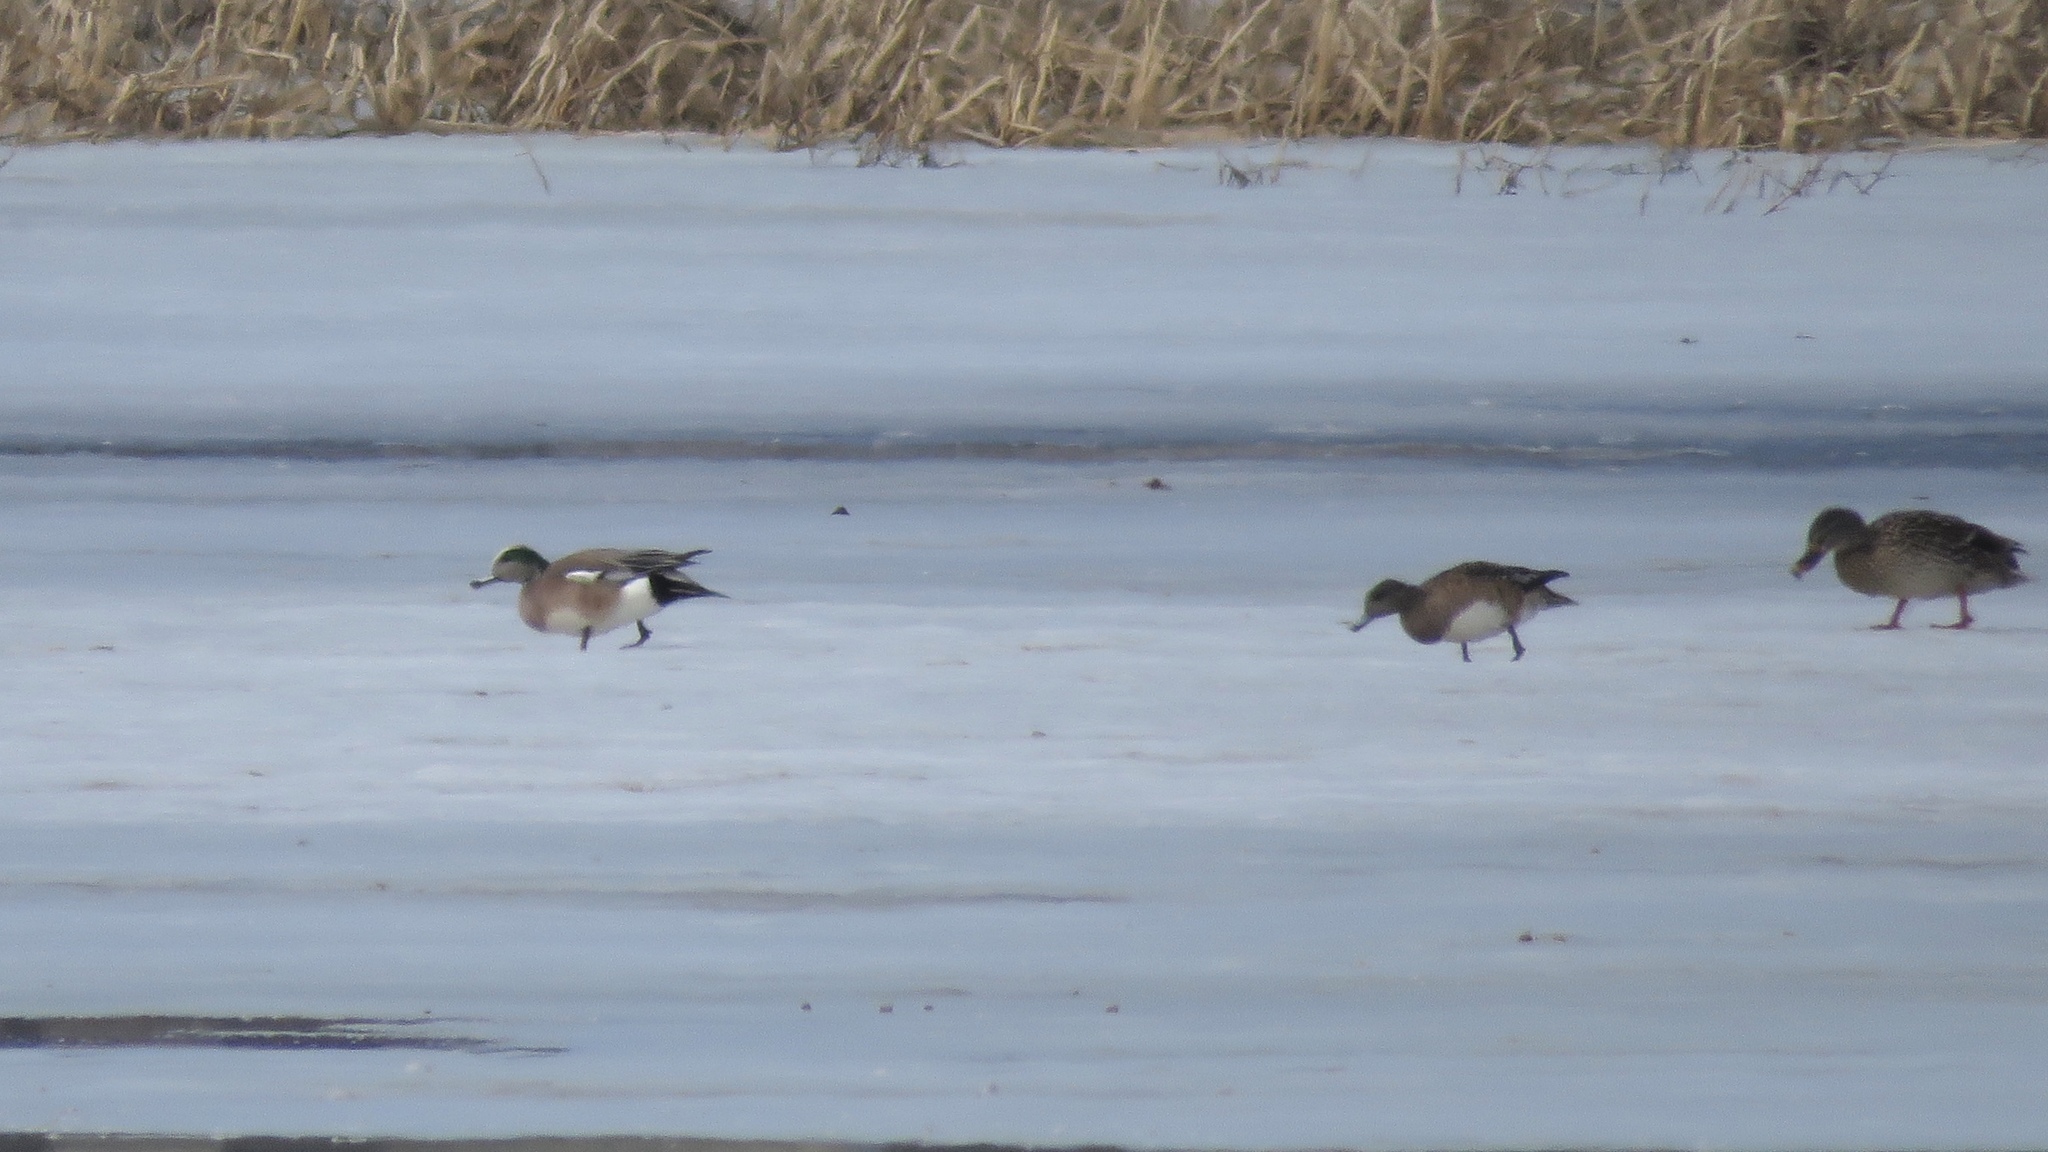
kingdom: Animalia
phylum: Chordata
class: Aves
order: Anseriformes
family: Anatidae
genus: Mareca
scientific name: Mareca americana
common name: American wigeon
